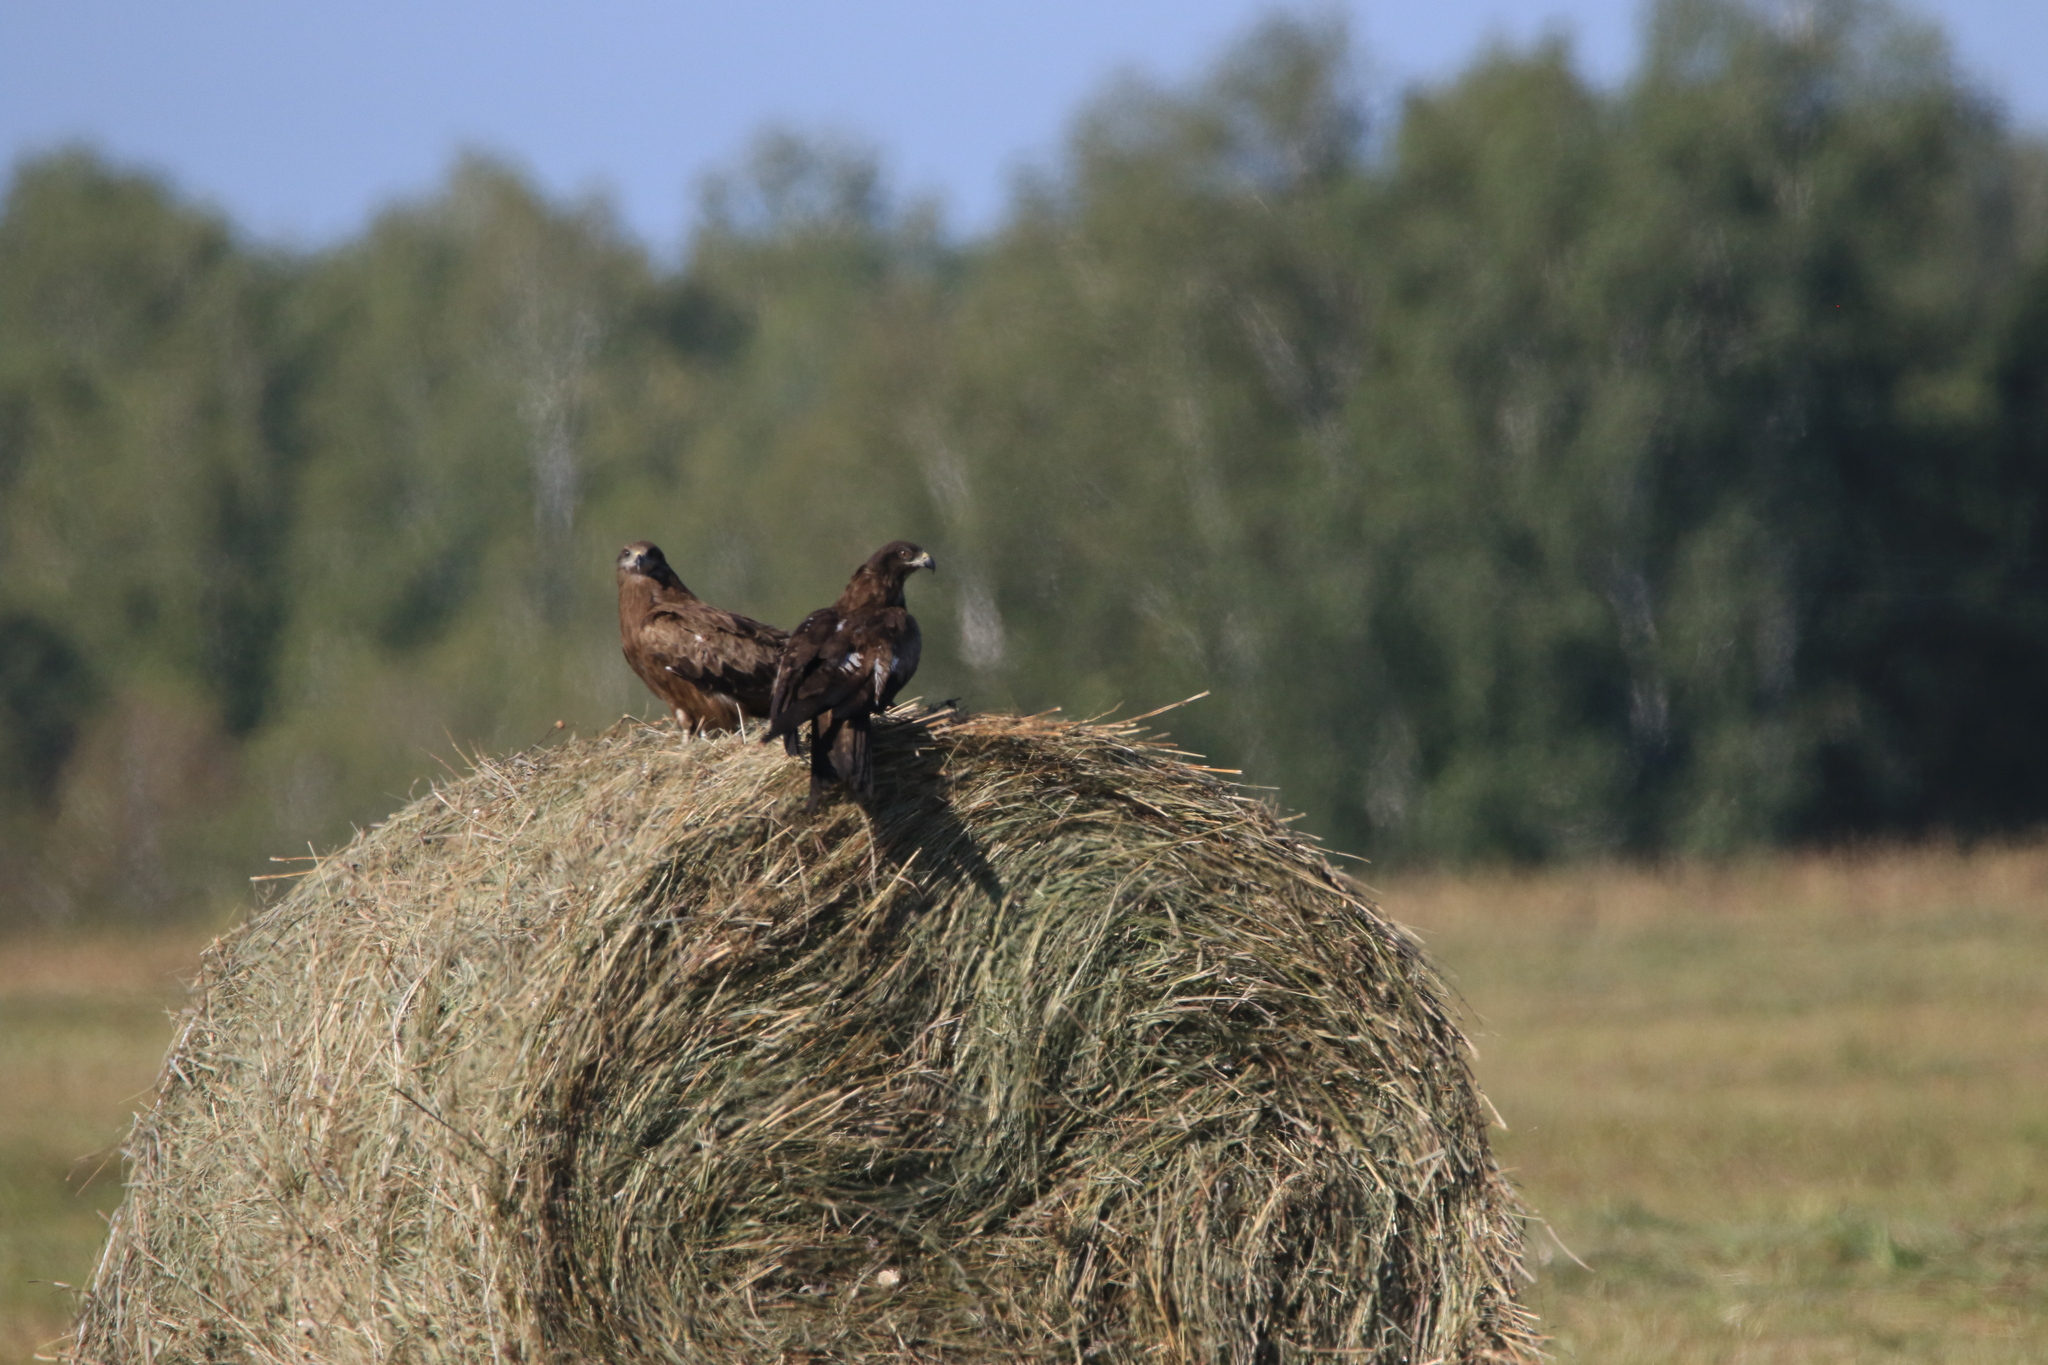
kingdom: Animalia
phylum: Chordata
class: Aves
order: Accipitriformes
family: Accipitridae
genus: Milvus
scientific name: Milvus migrans
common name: Black kite
